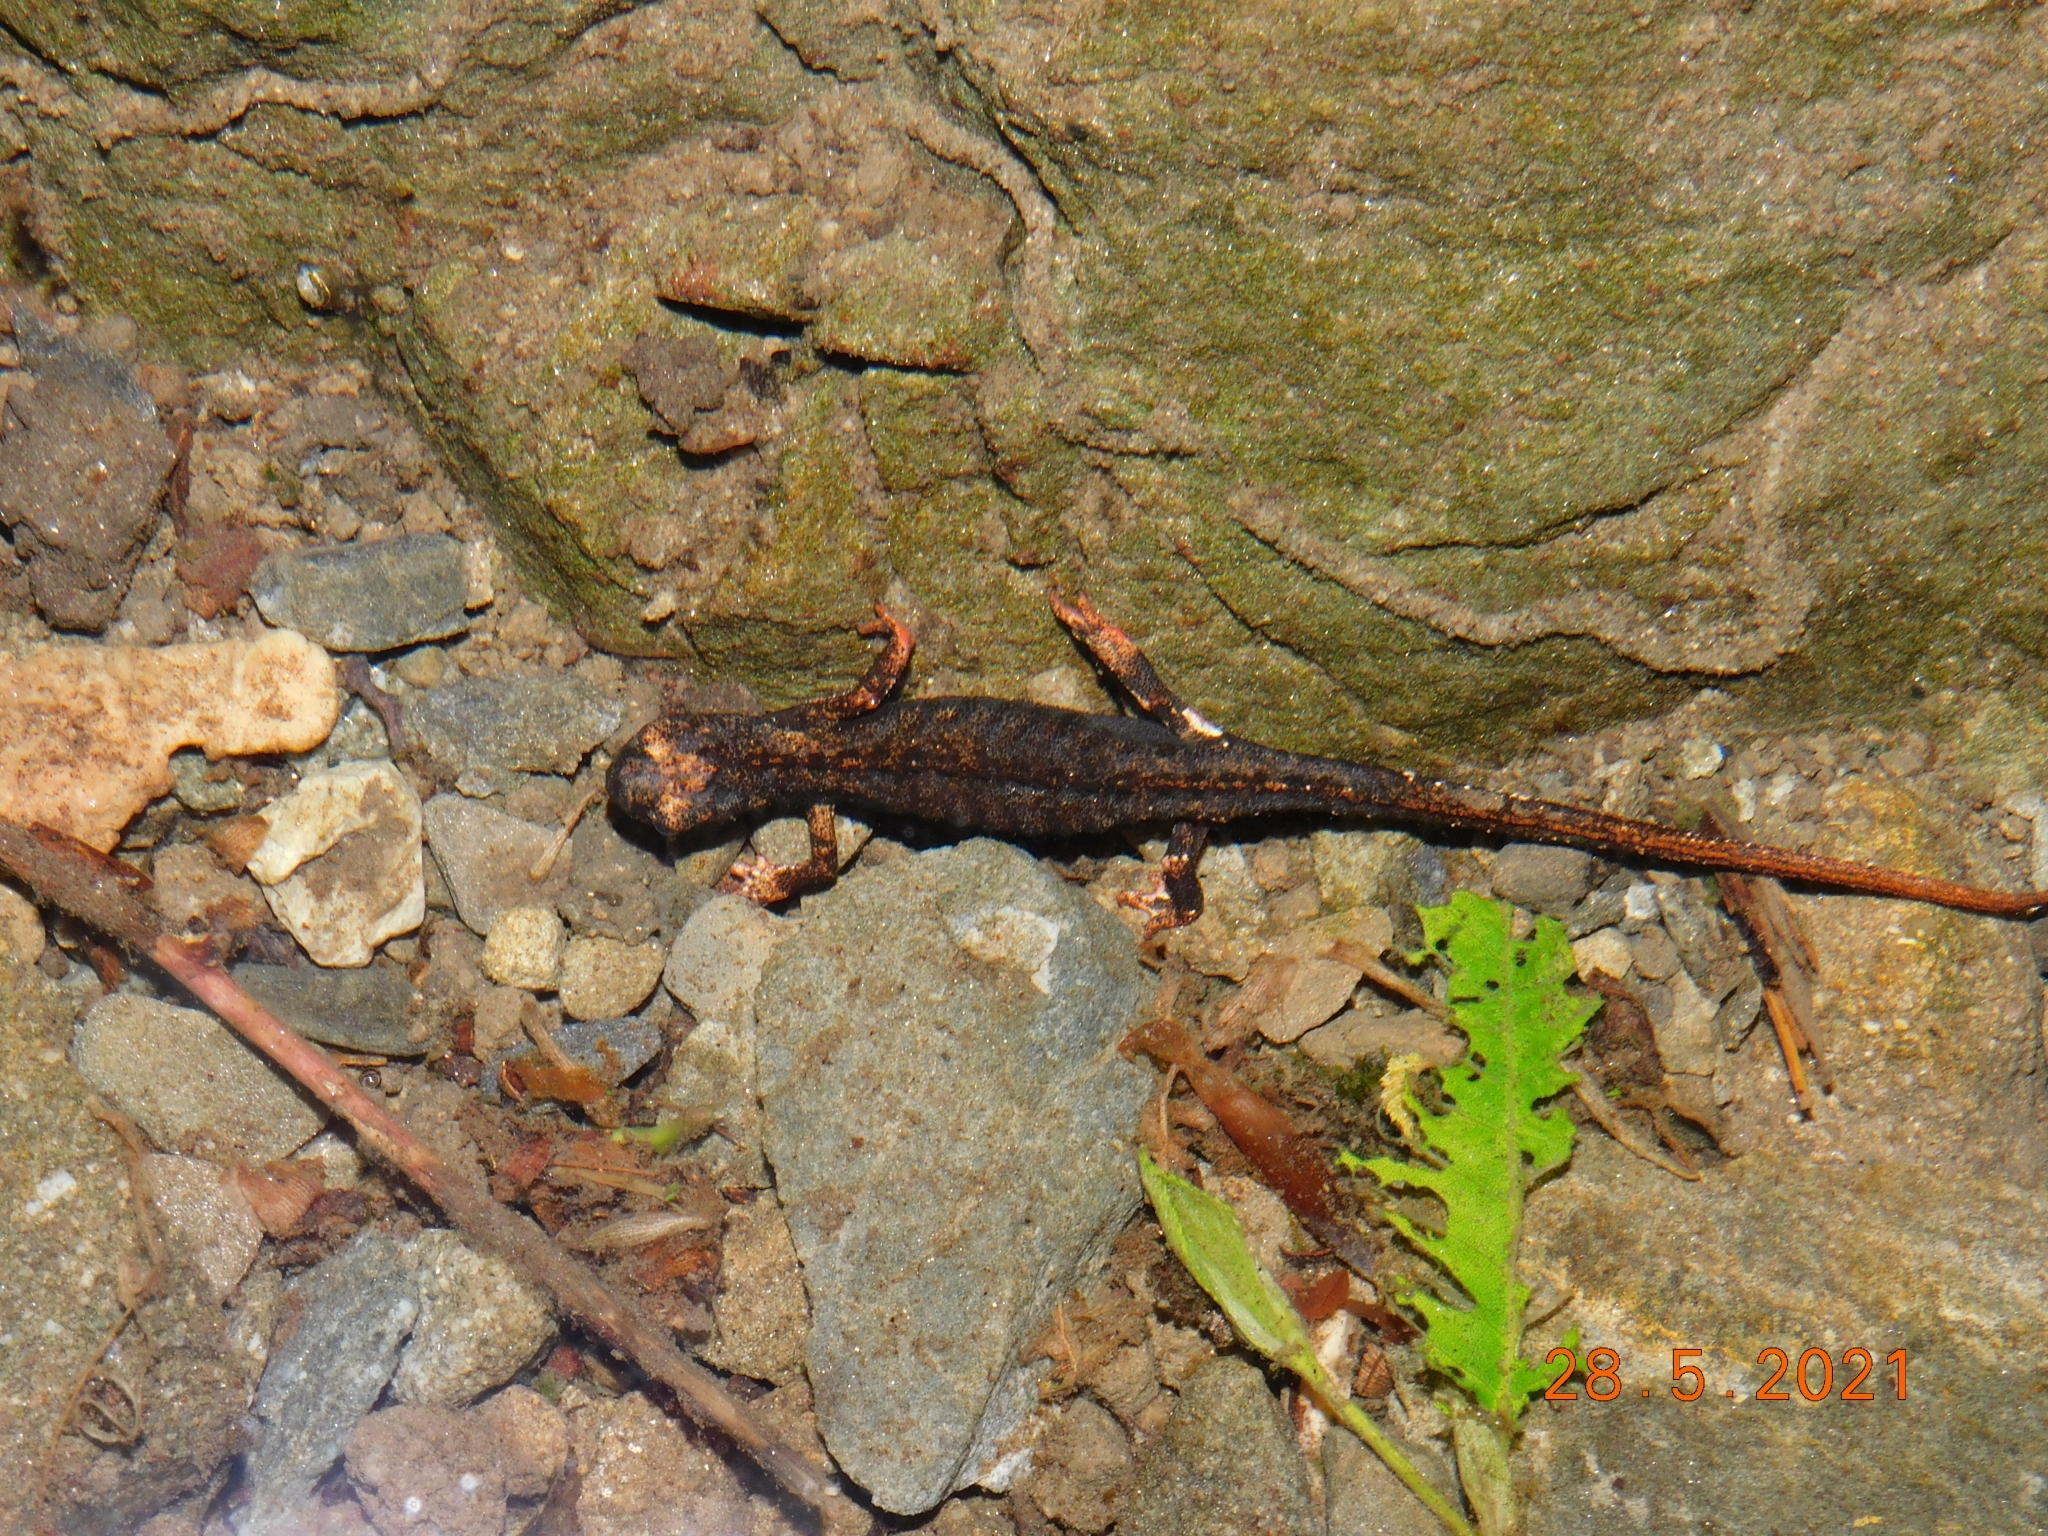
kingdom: Animalia
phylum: Chordata
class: Amphibia
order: Caudata
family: Salamandridae
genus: Salamandrina
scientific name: Salamandrina perspicillata
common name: Northern spectacled salamander
